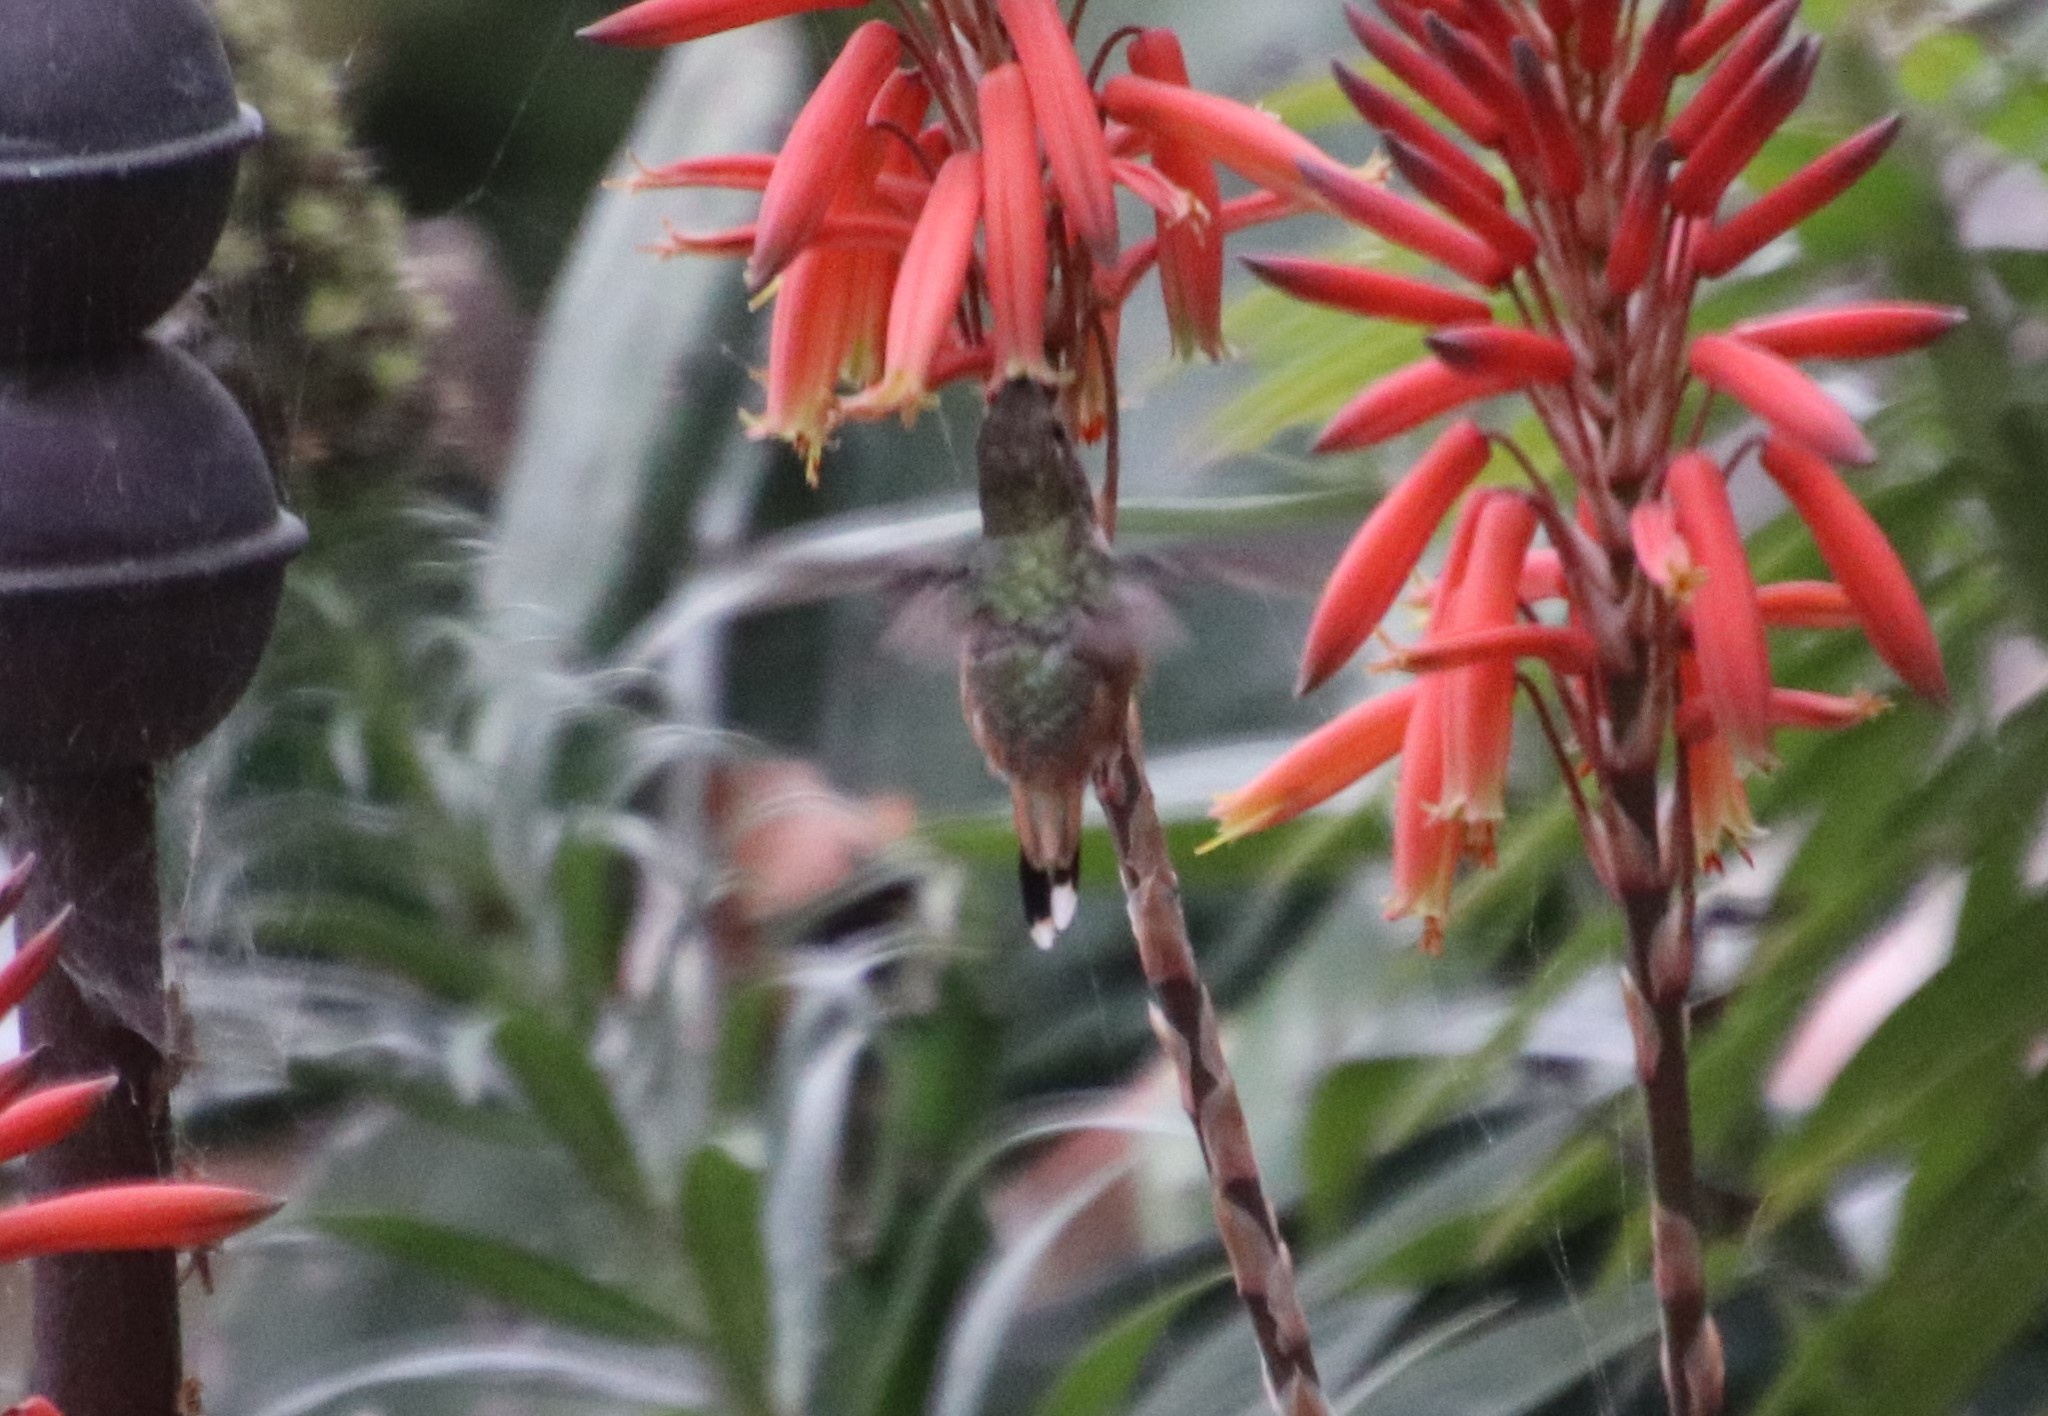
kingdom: Animalia
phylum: Chordata
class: Aves
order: Apodiformes
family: Trochilidae
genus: Selasphorus
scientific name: Selasphorus sasin
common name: Allen's hummingbird
